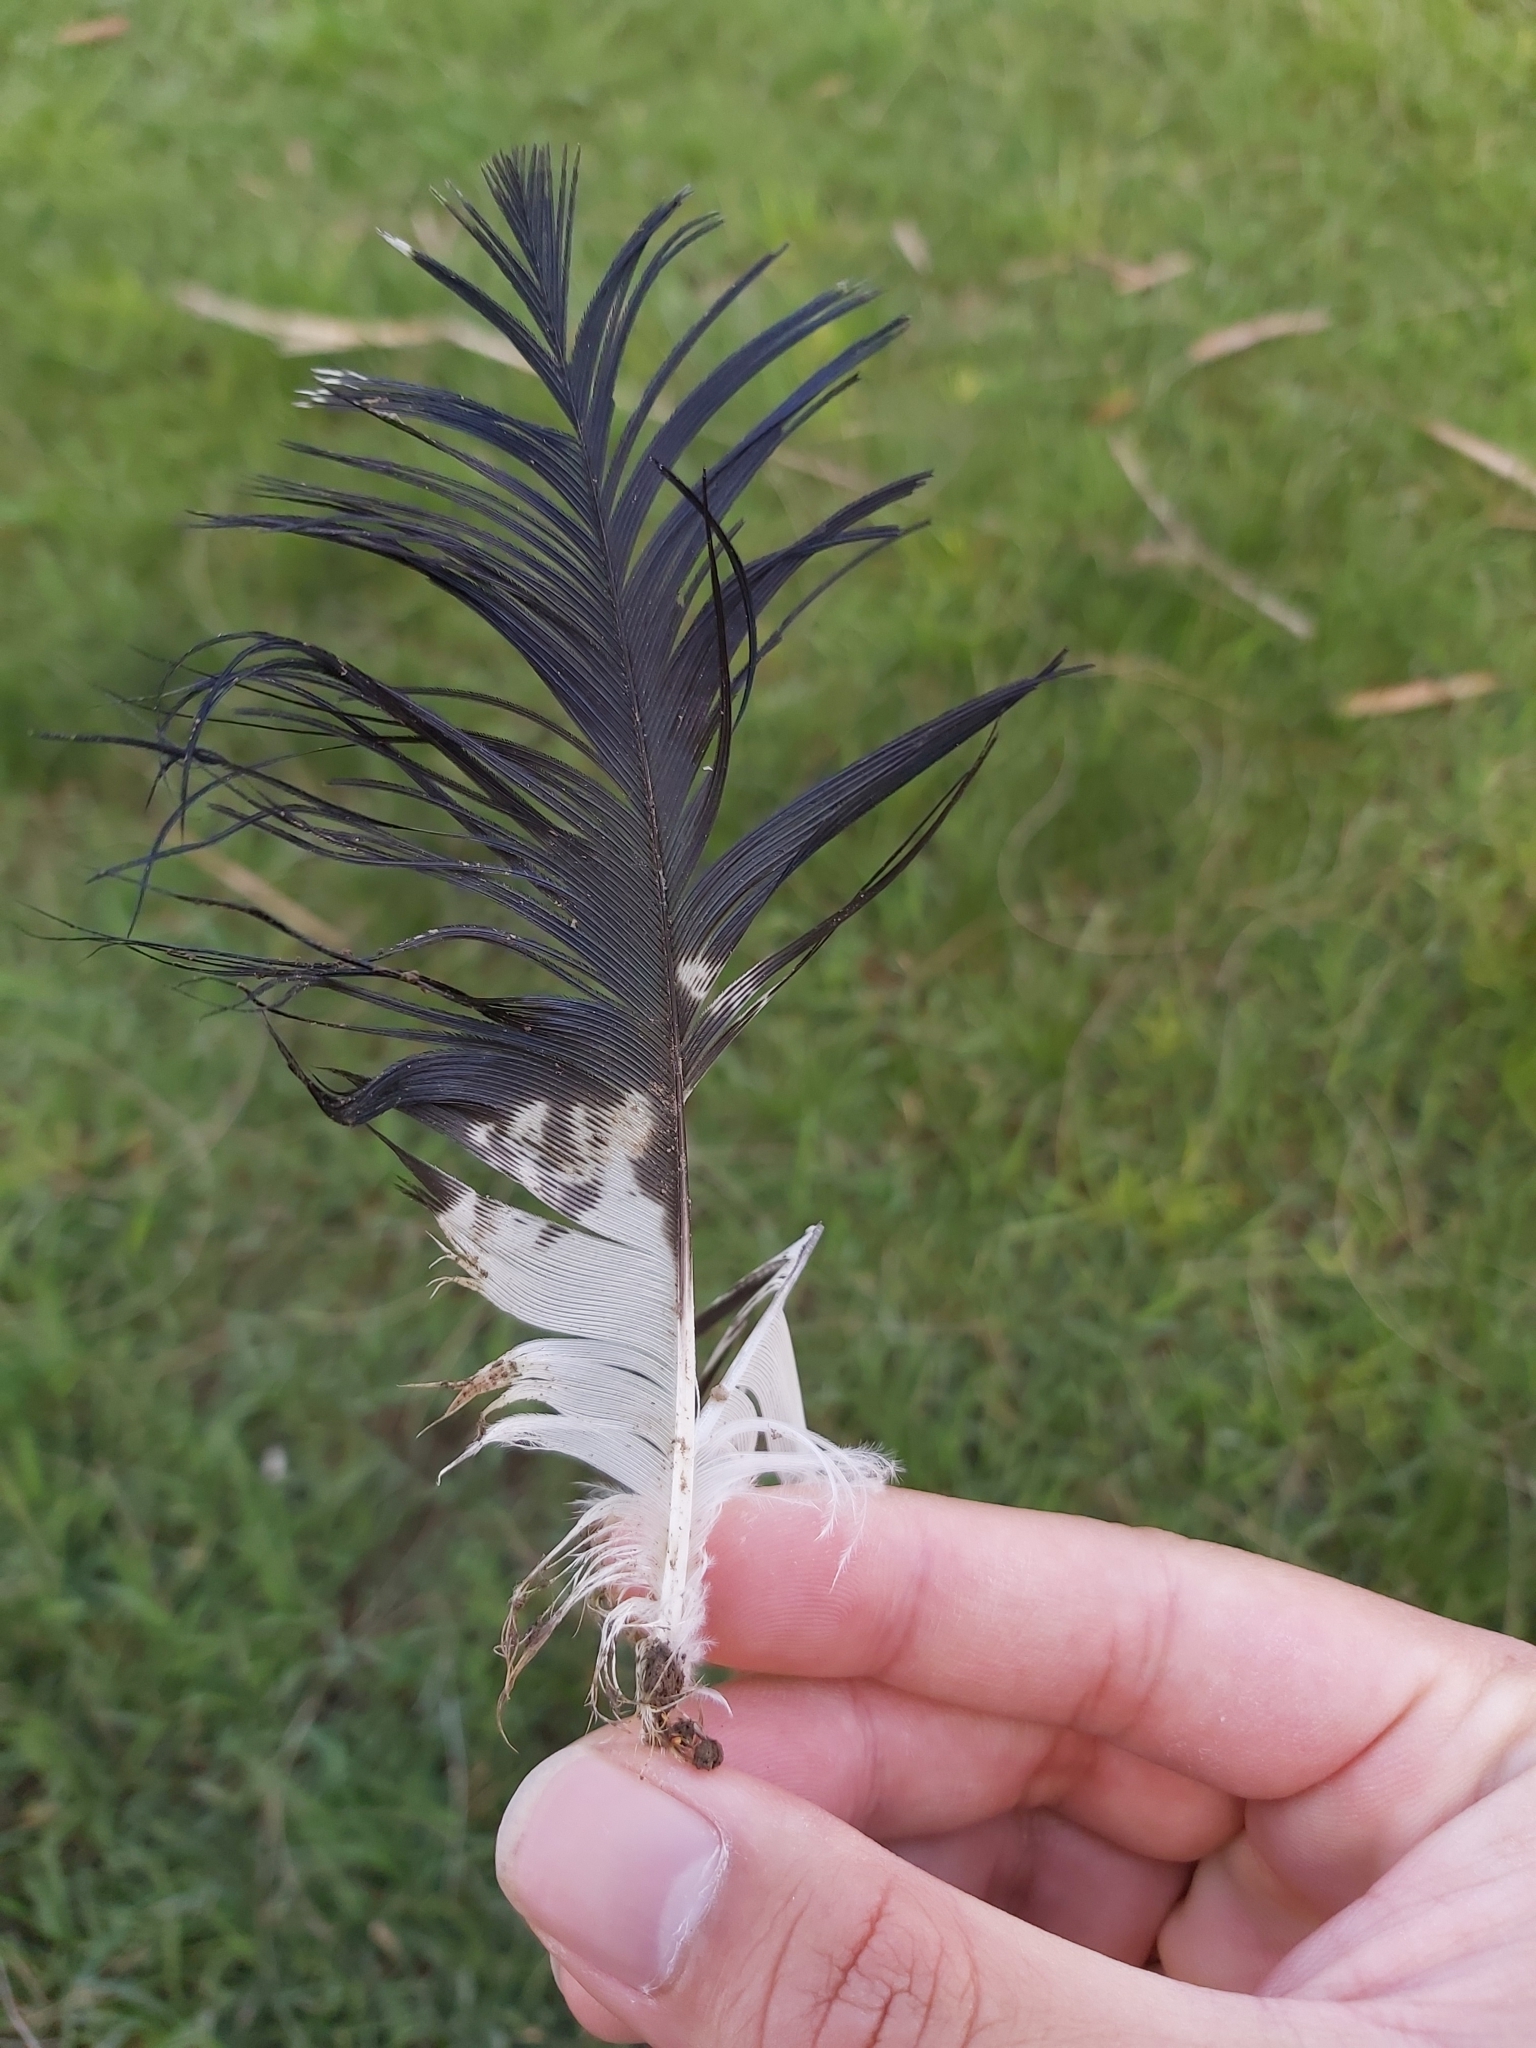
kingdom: Animalia
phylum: Chordata
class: Aves
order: Pelecaniformes
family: Threskiornithidae
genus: Threskiornis
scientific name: Threskiornis molucca
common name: Australian white ibis
